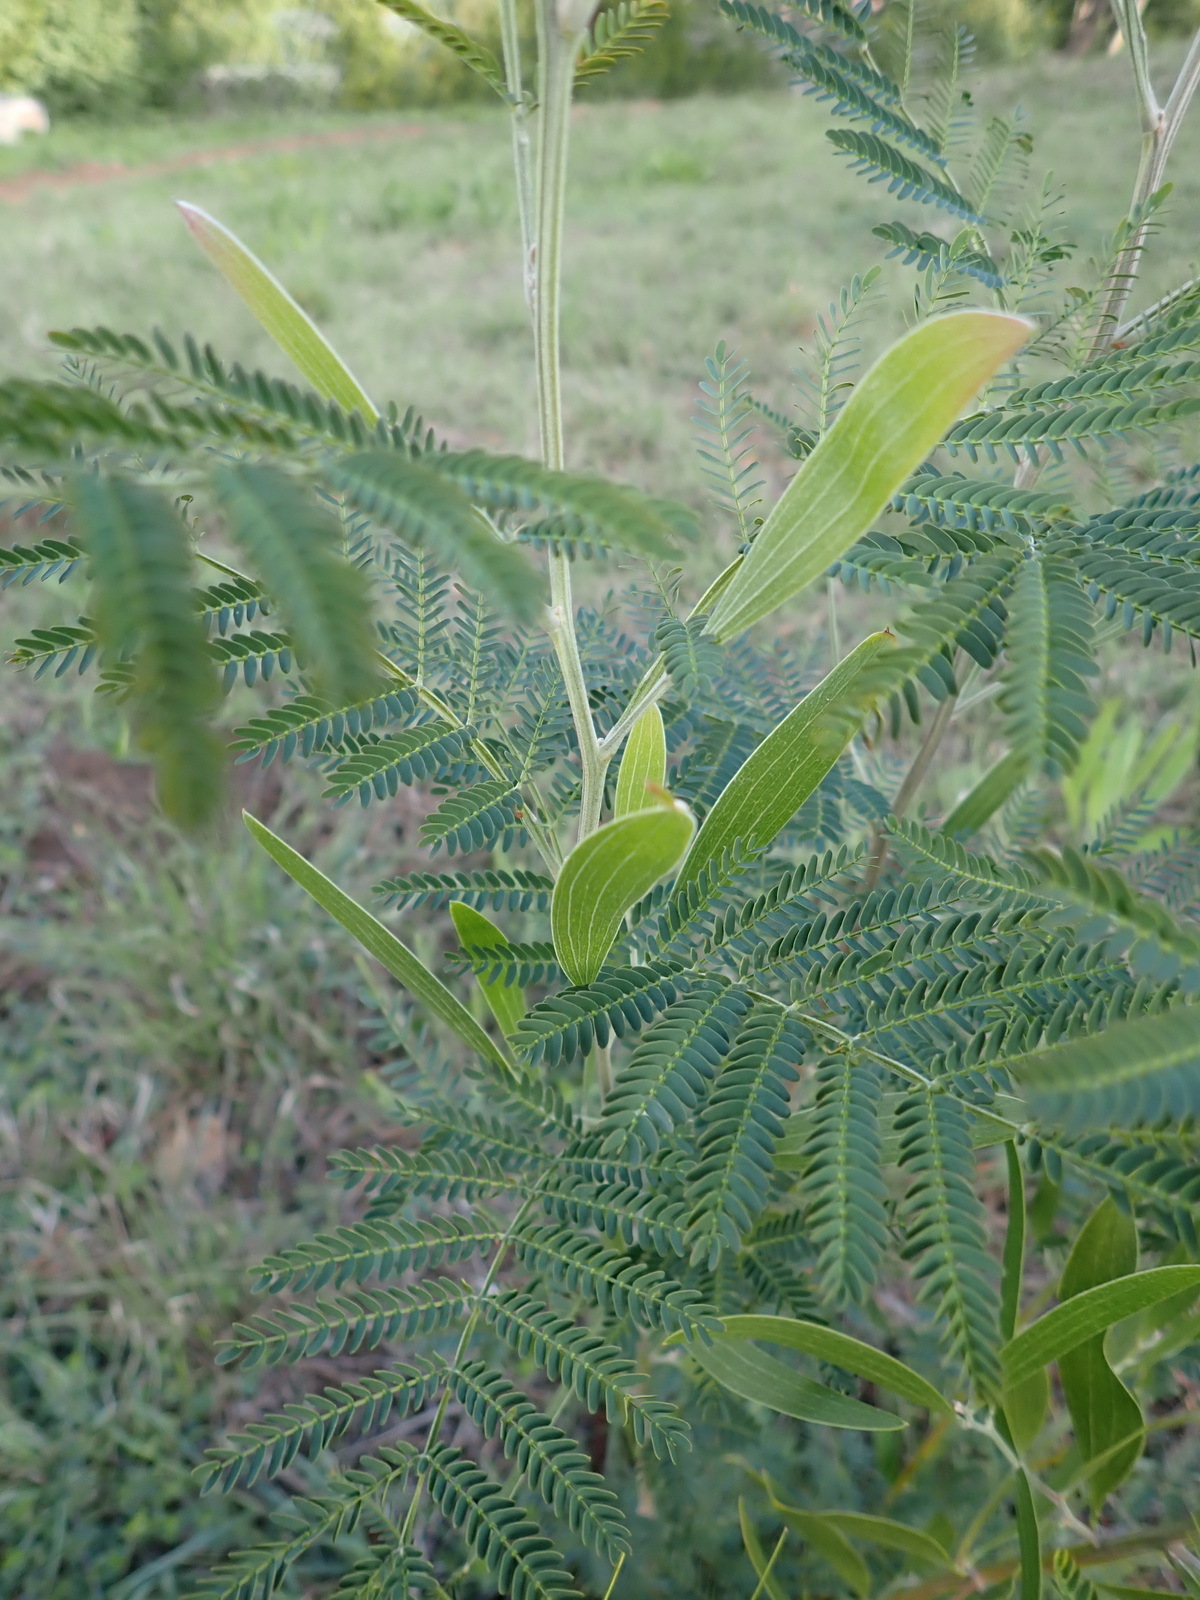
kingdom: Plantae
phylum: Tracheophyta
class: Magnoliopsida
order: Fabales
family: Fabaceae
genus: Acacia
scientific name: Acacia melanoxylon
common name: Blackwood
